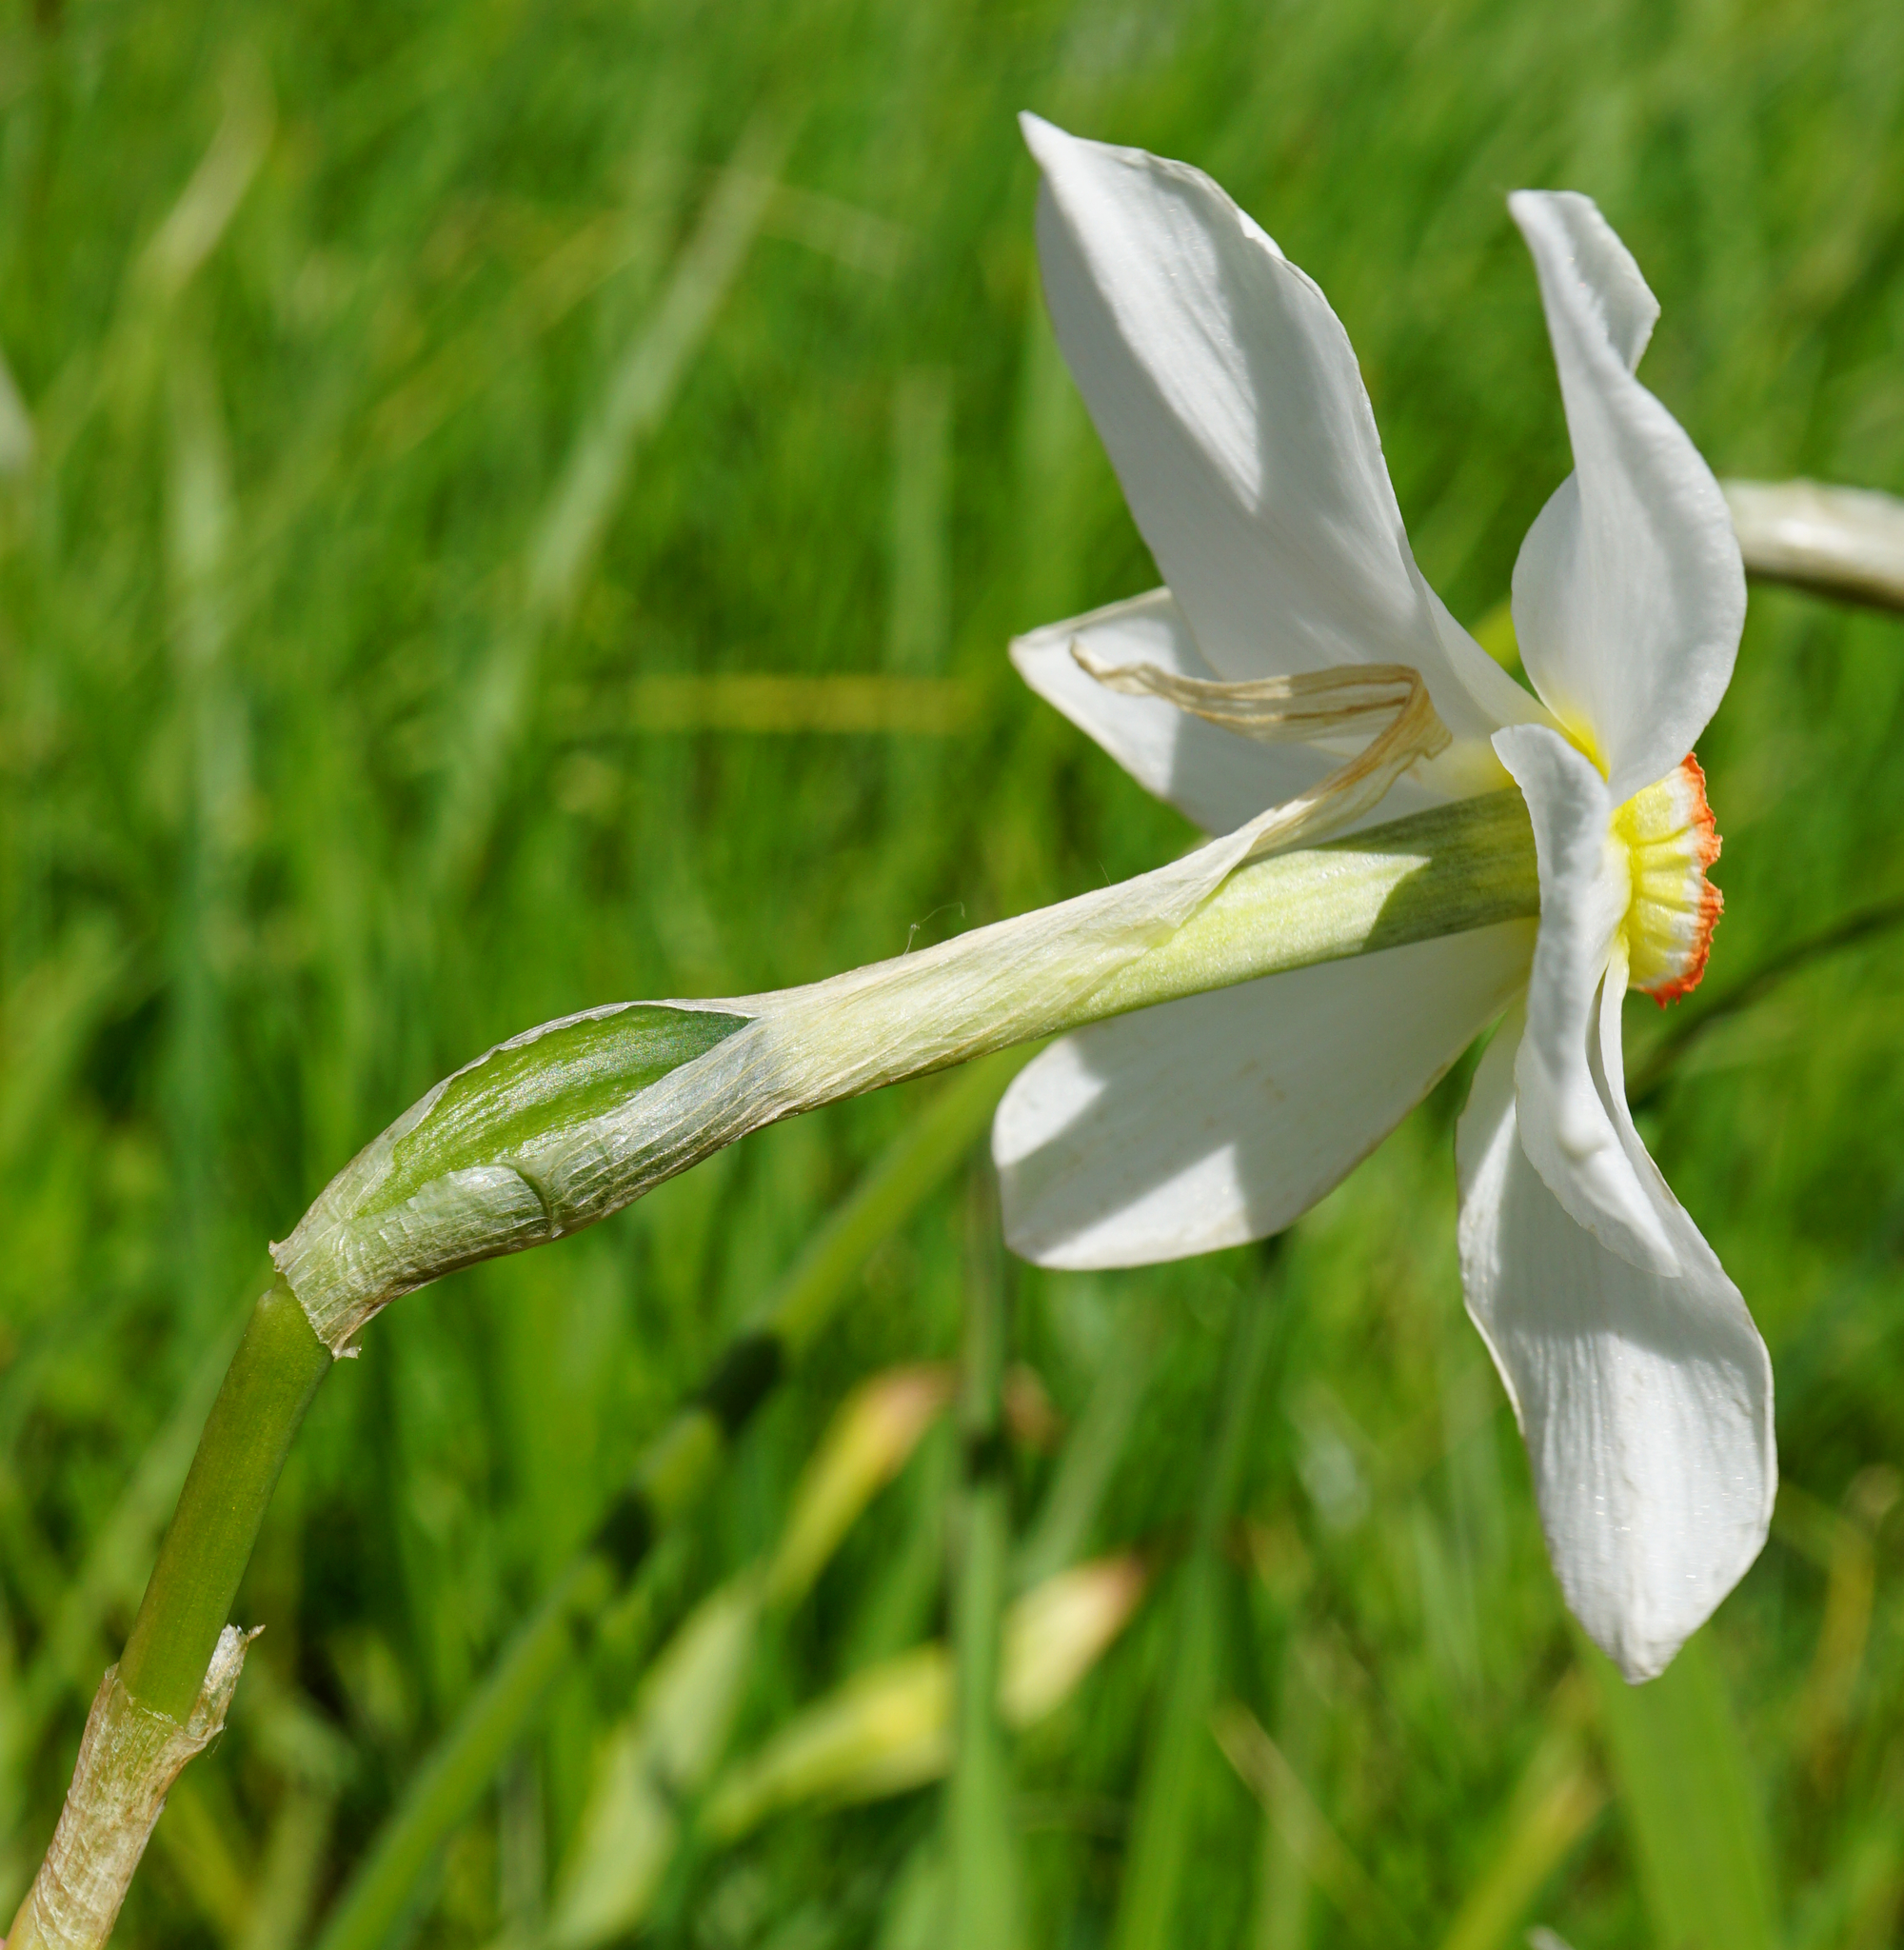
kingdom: Plantae
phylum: Tracheophyta
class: Liliopsida
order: Asparagales
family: Amaryllidaceae
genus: Narcissus
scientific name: Narcissus poeticus
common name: Pheasant's-eye daffodil
